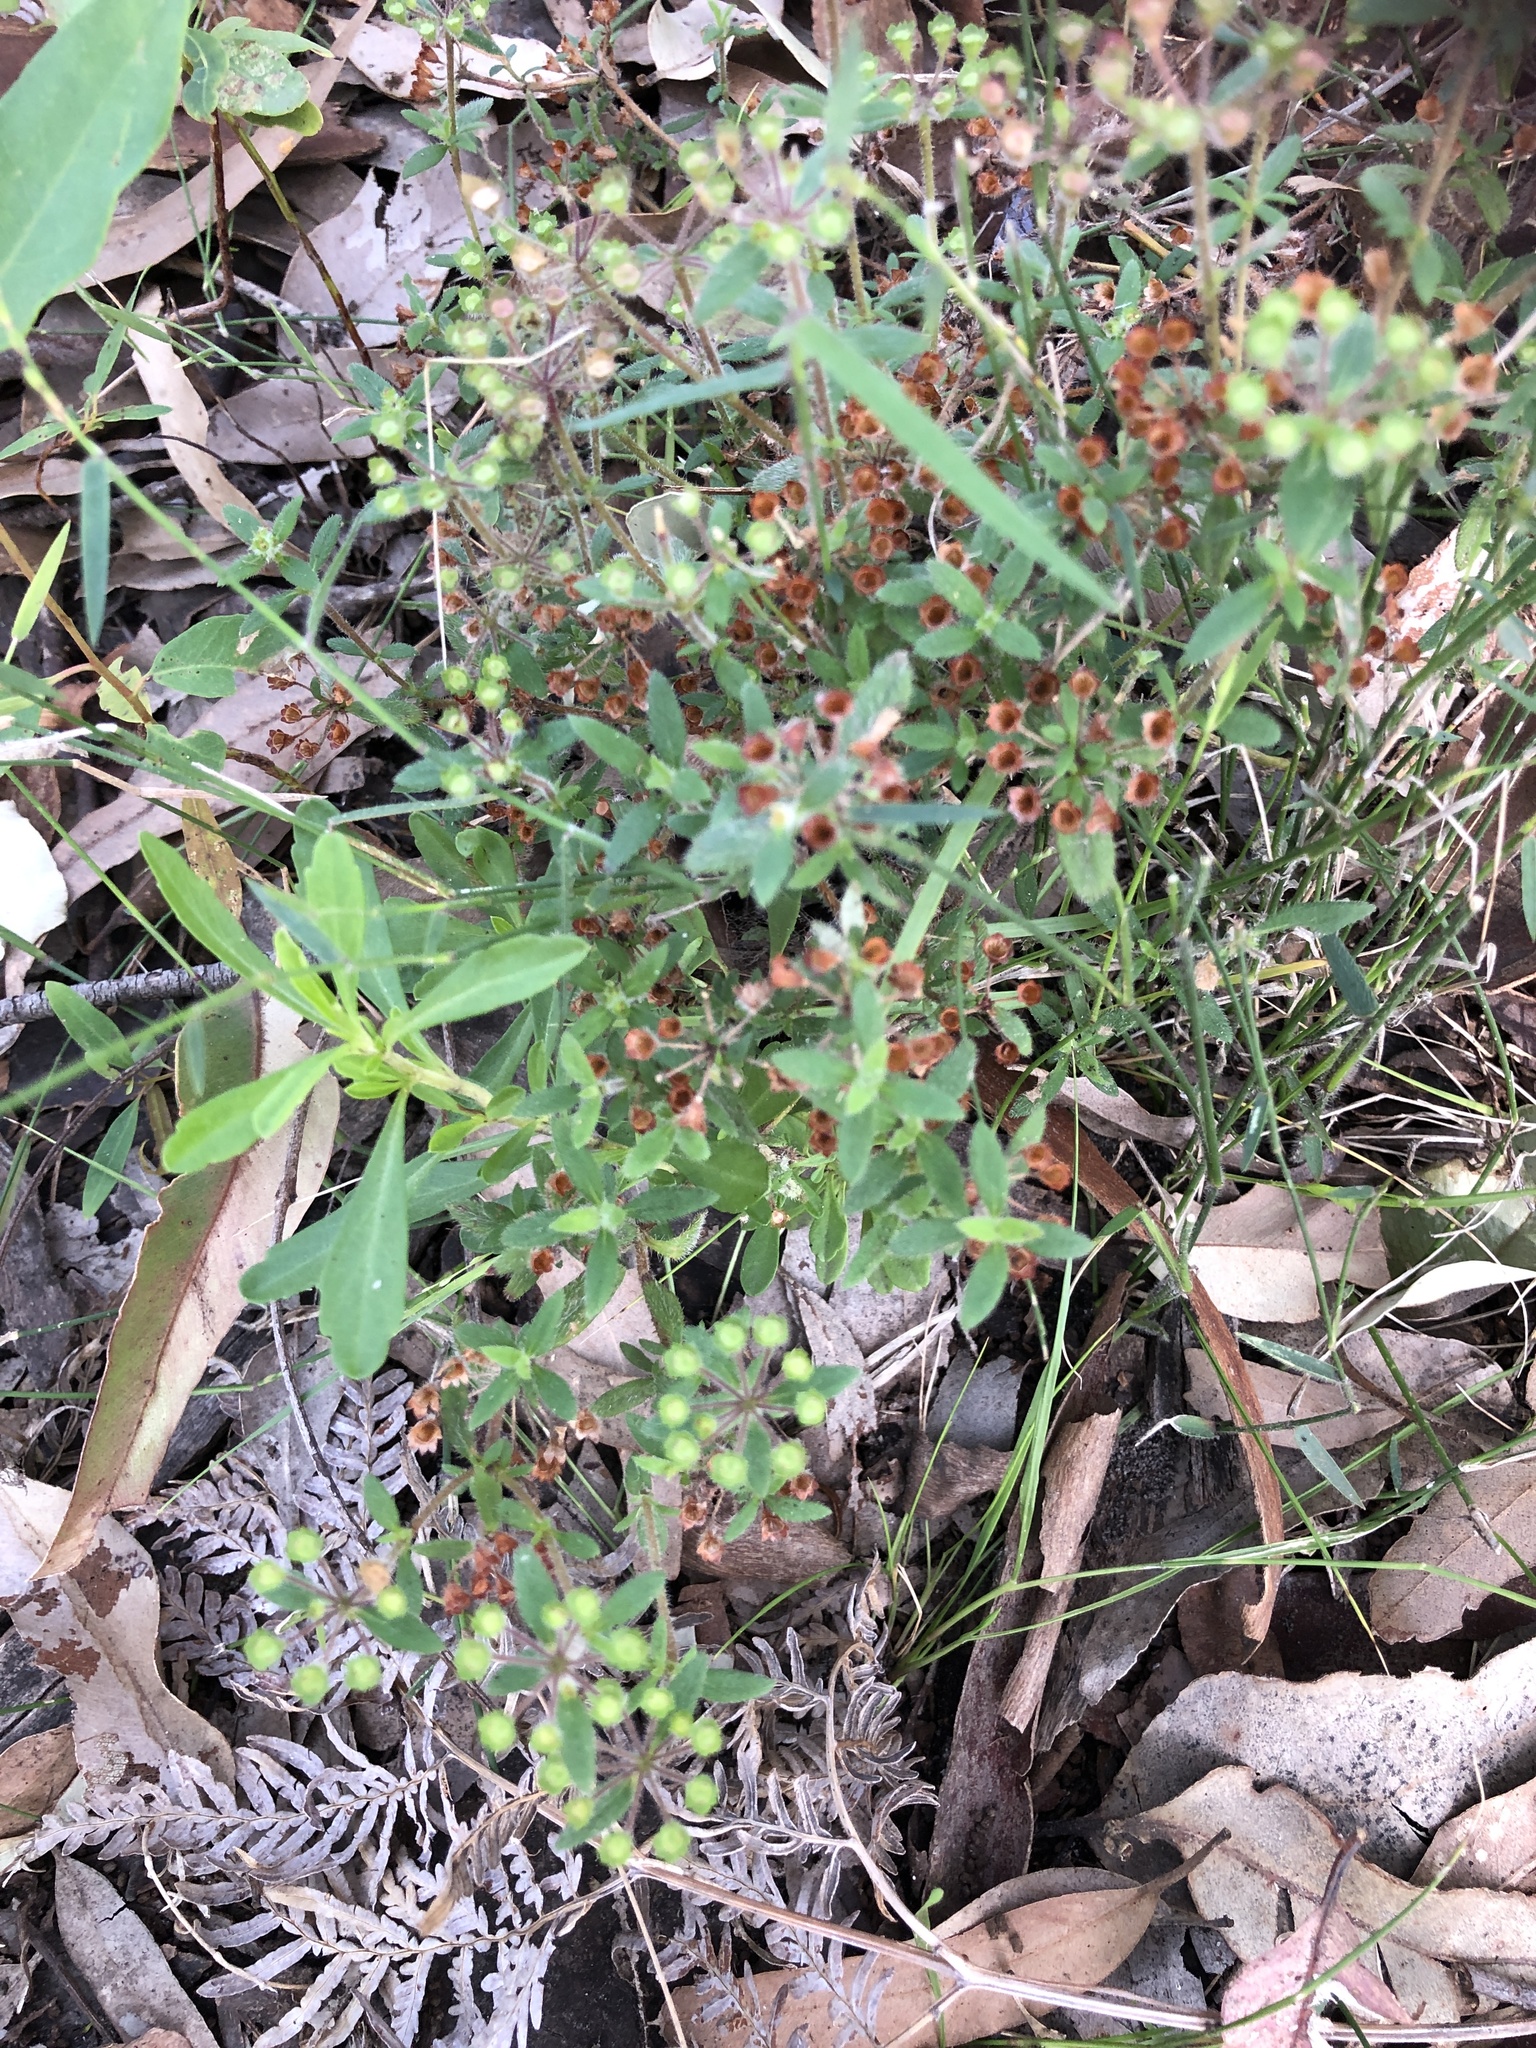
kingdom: Plantae
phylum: Tracheophyta
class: Magnoliopsida
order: Gentianales
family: Rubiaceae
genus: Pomax
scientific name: Pomax umbellata
